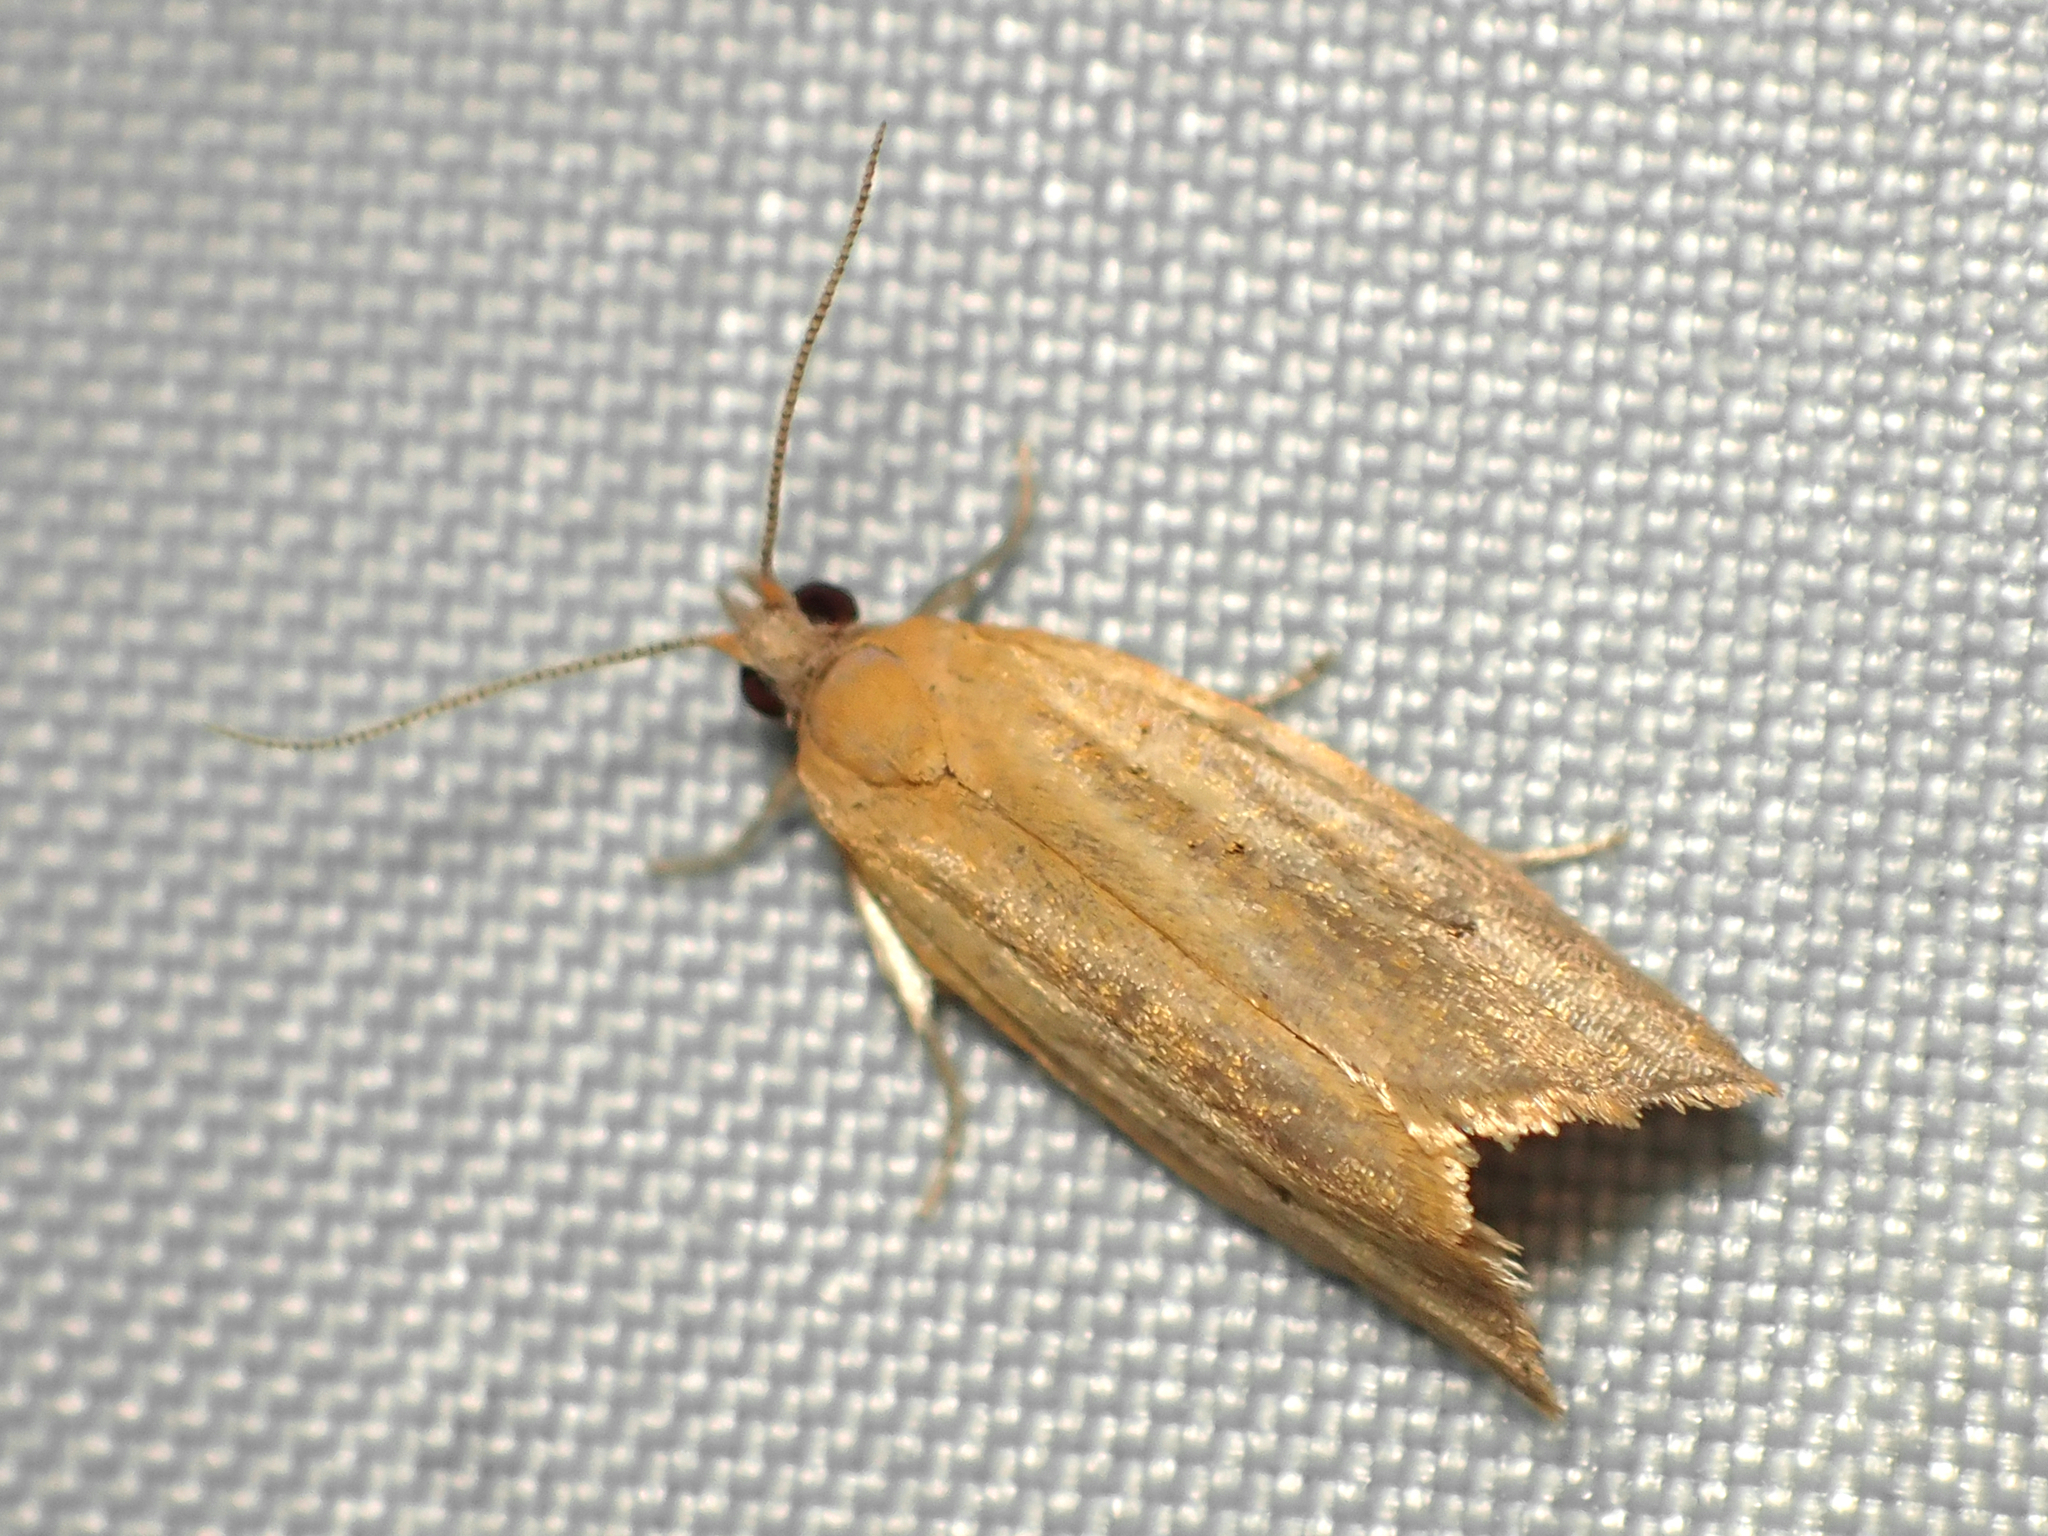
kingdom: Animalia
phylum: Arthropoda
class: Insecta
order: Lepidoptera
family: Tortricidae
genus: Pyrgotis
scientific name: Pyrgotis chrysomela
